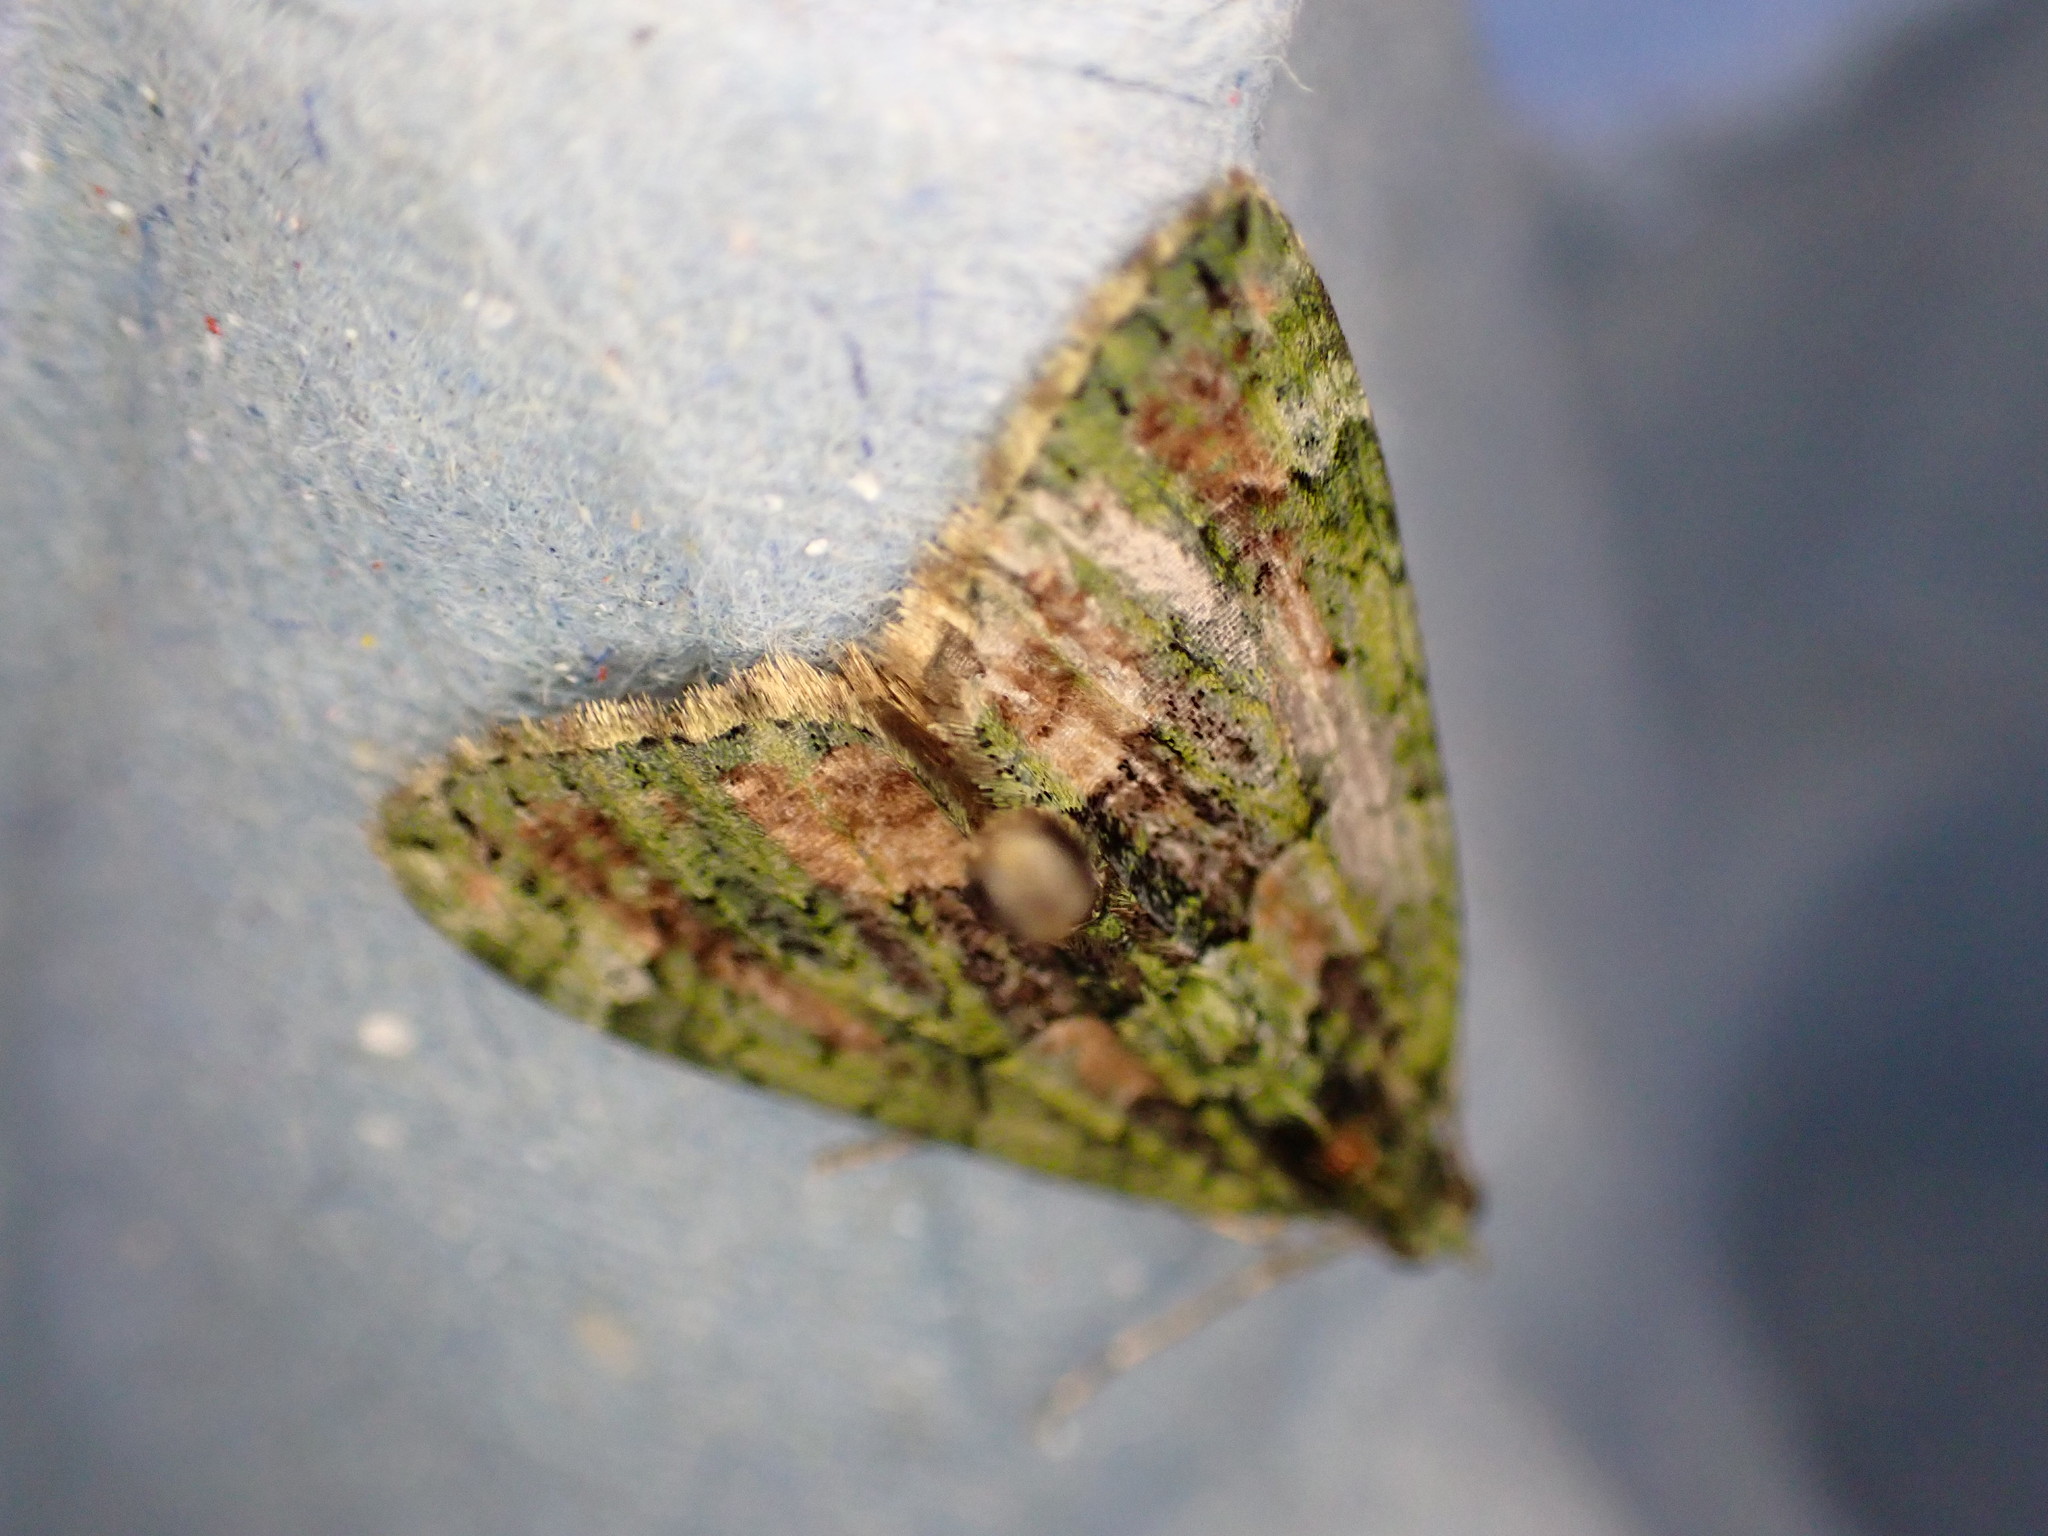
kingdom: Animalia
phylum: Arthropoda
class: Insecta
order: Lepidoptera
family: Geometridae
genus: Chloroclysta
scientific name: Chloroclysta siterata
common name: Red-green carpet
